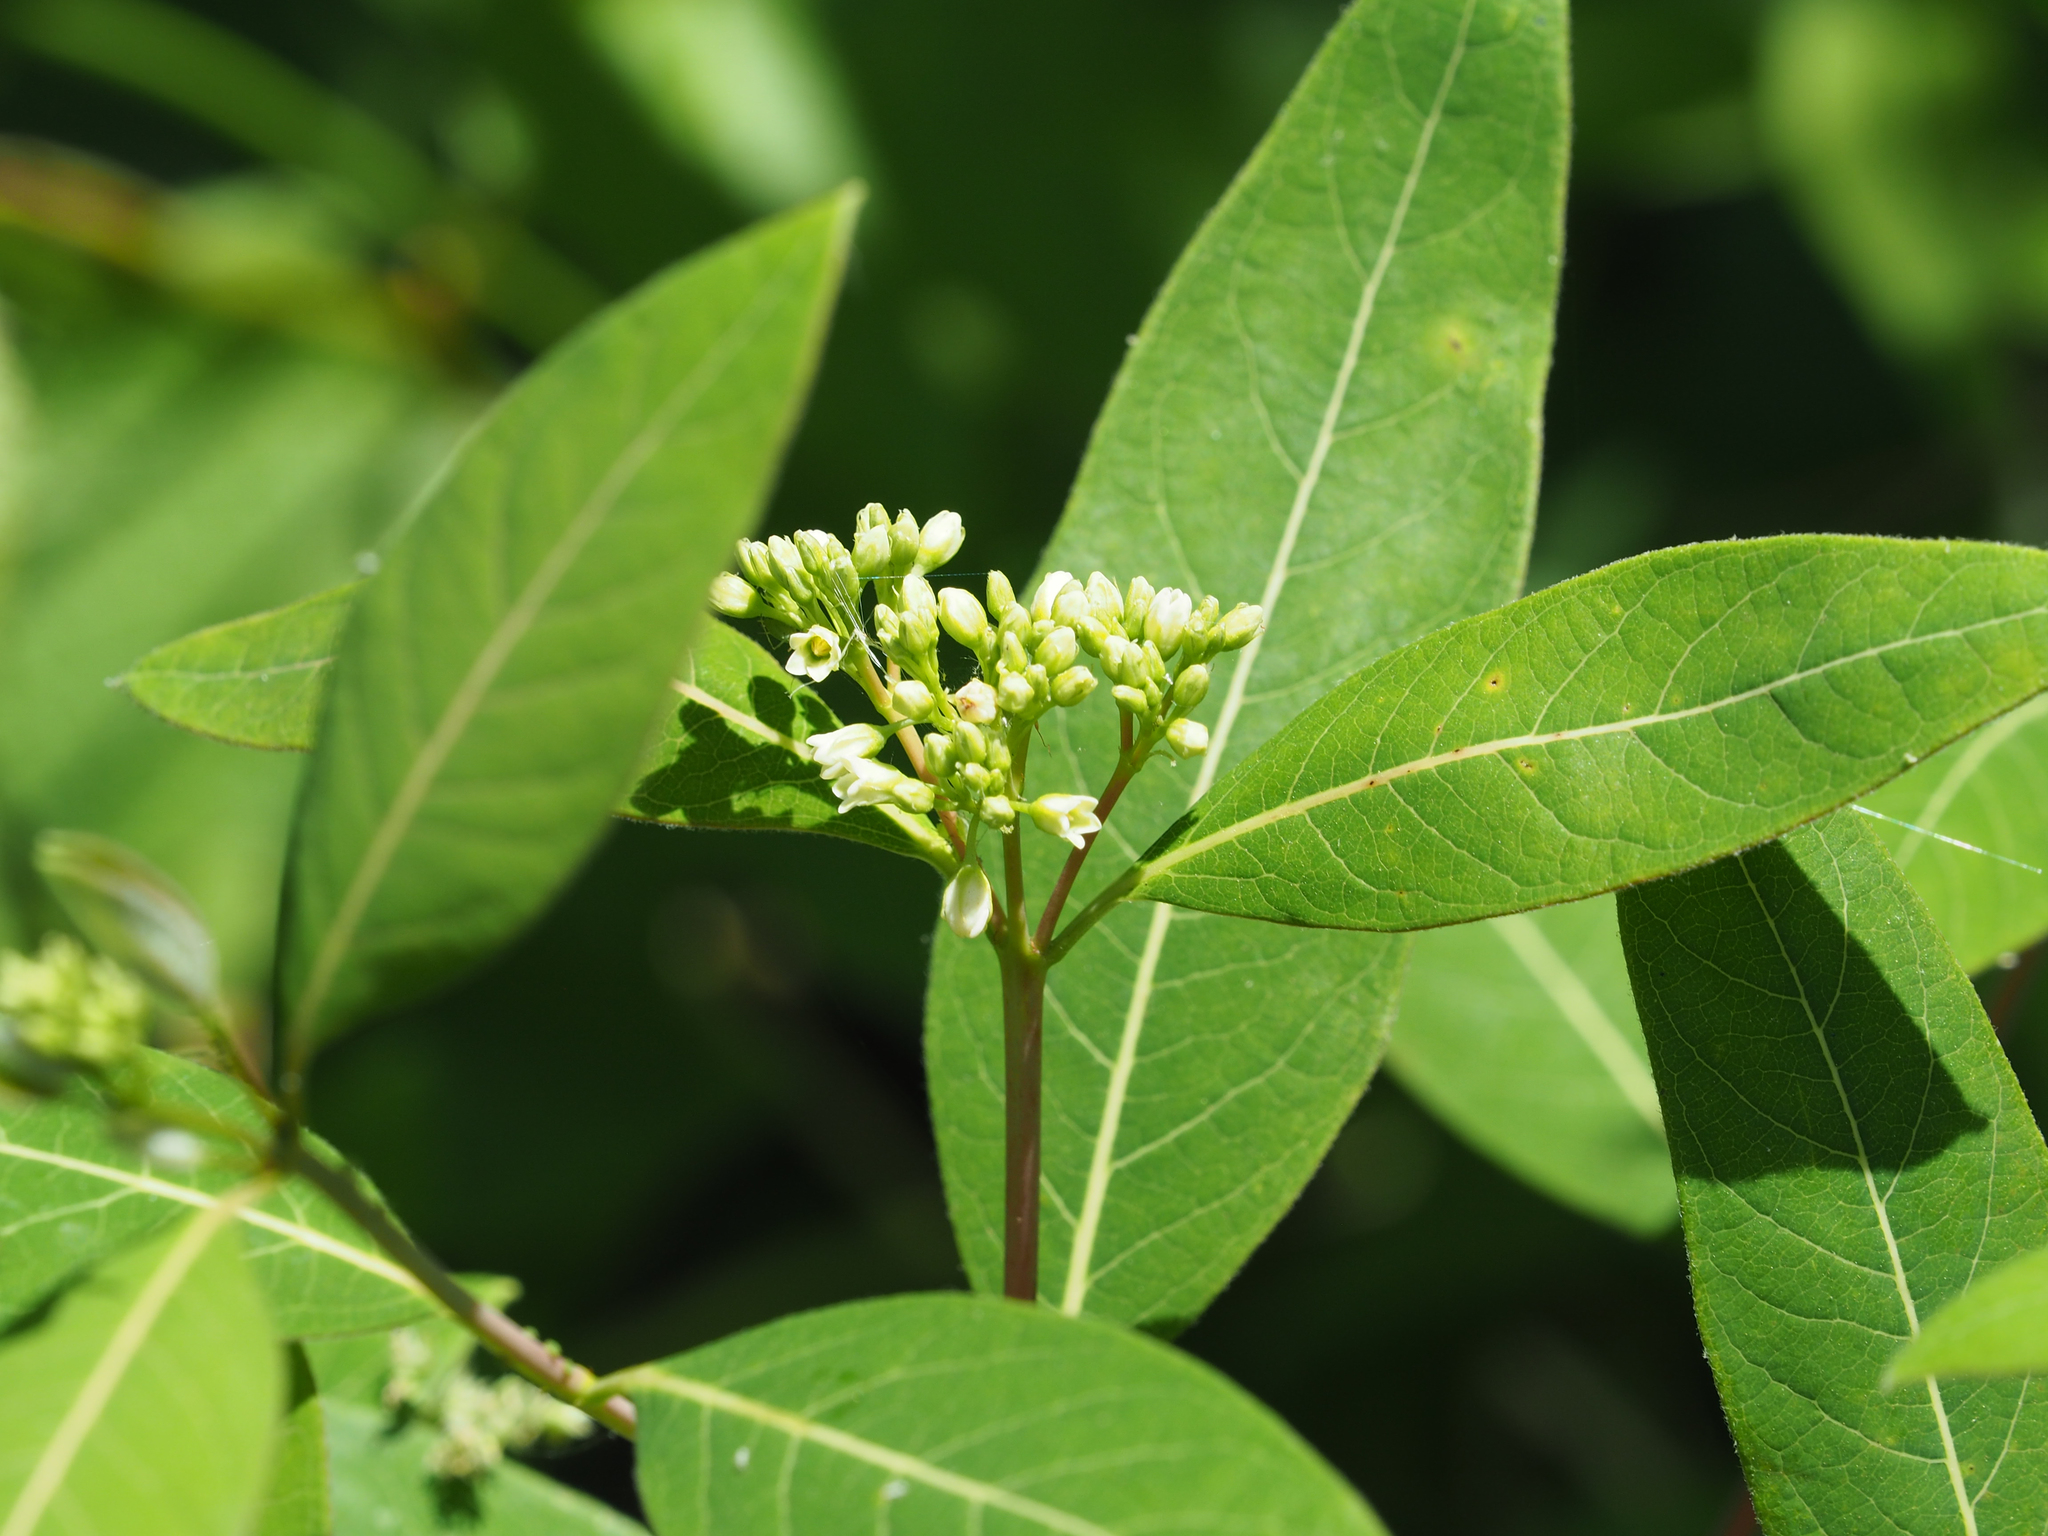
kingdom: Plantae
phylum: Tracheophyta
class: Magnoliopsida
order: Gentianales
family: Apocynaceae
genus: Apocynum
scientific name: Apocynum cannabinum
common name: Hemp dogbane
